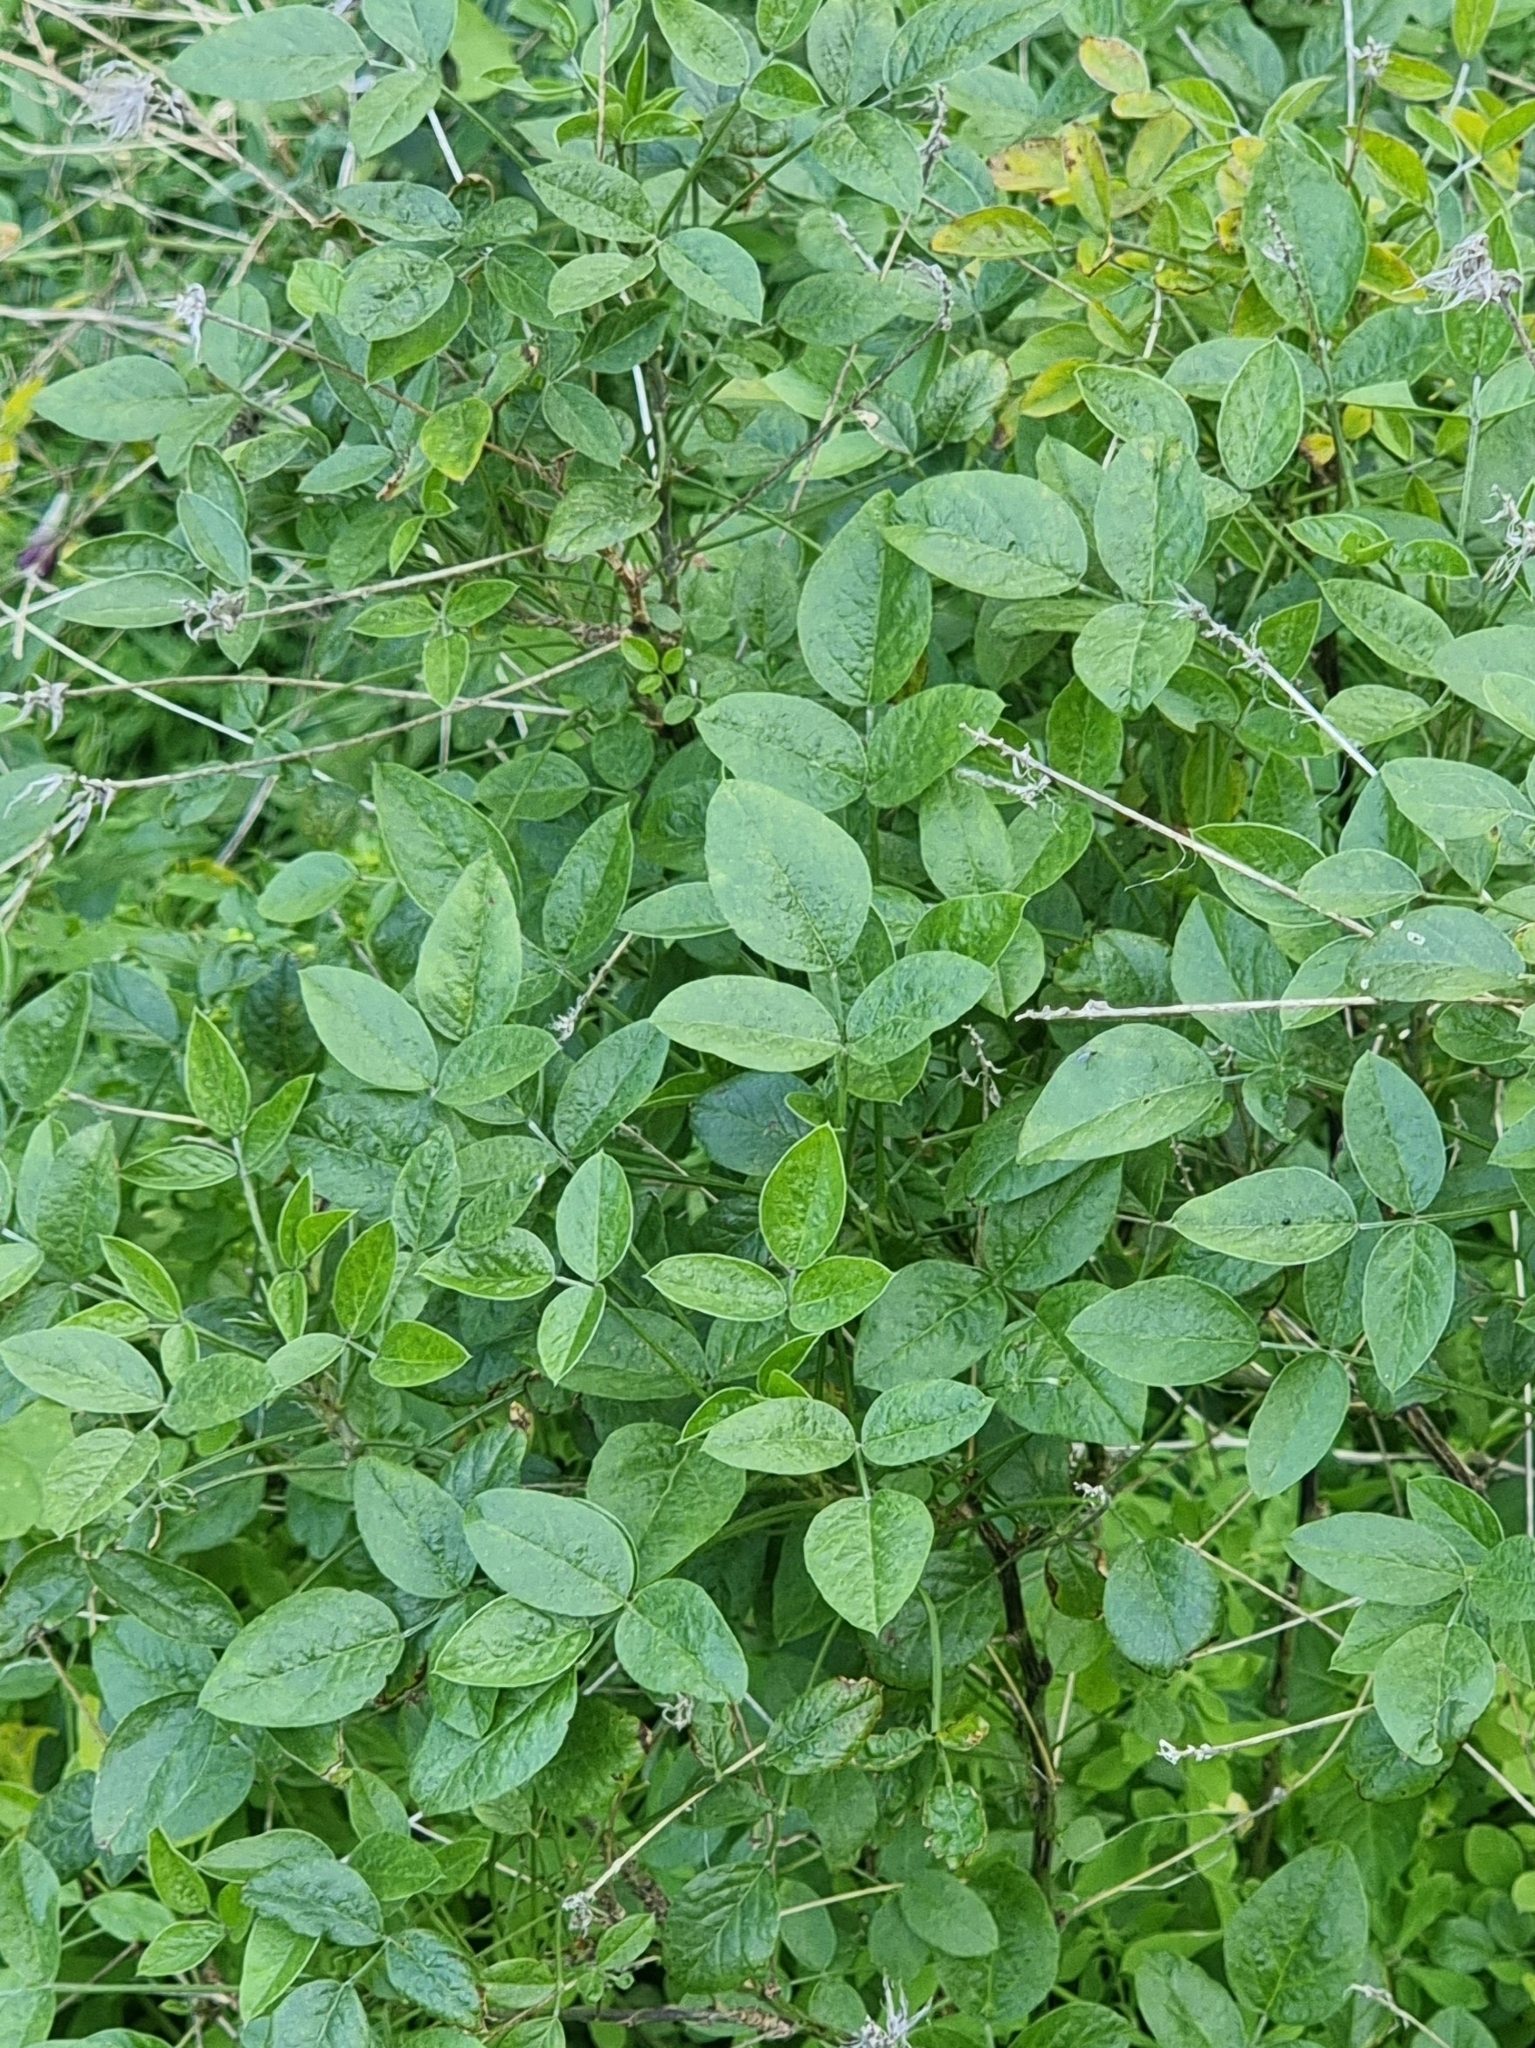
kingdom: Plantae
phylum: Tracheophyta
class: Magnoliopsida
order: Fabales
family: Fabaceae
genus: Bituminaria
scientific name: Bituminaria bituminosa
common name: Arabian pea
